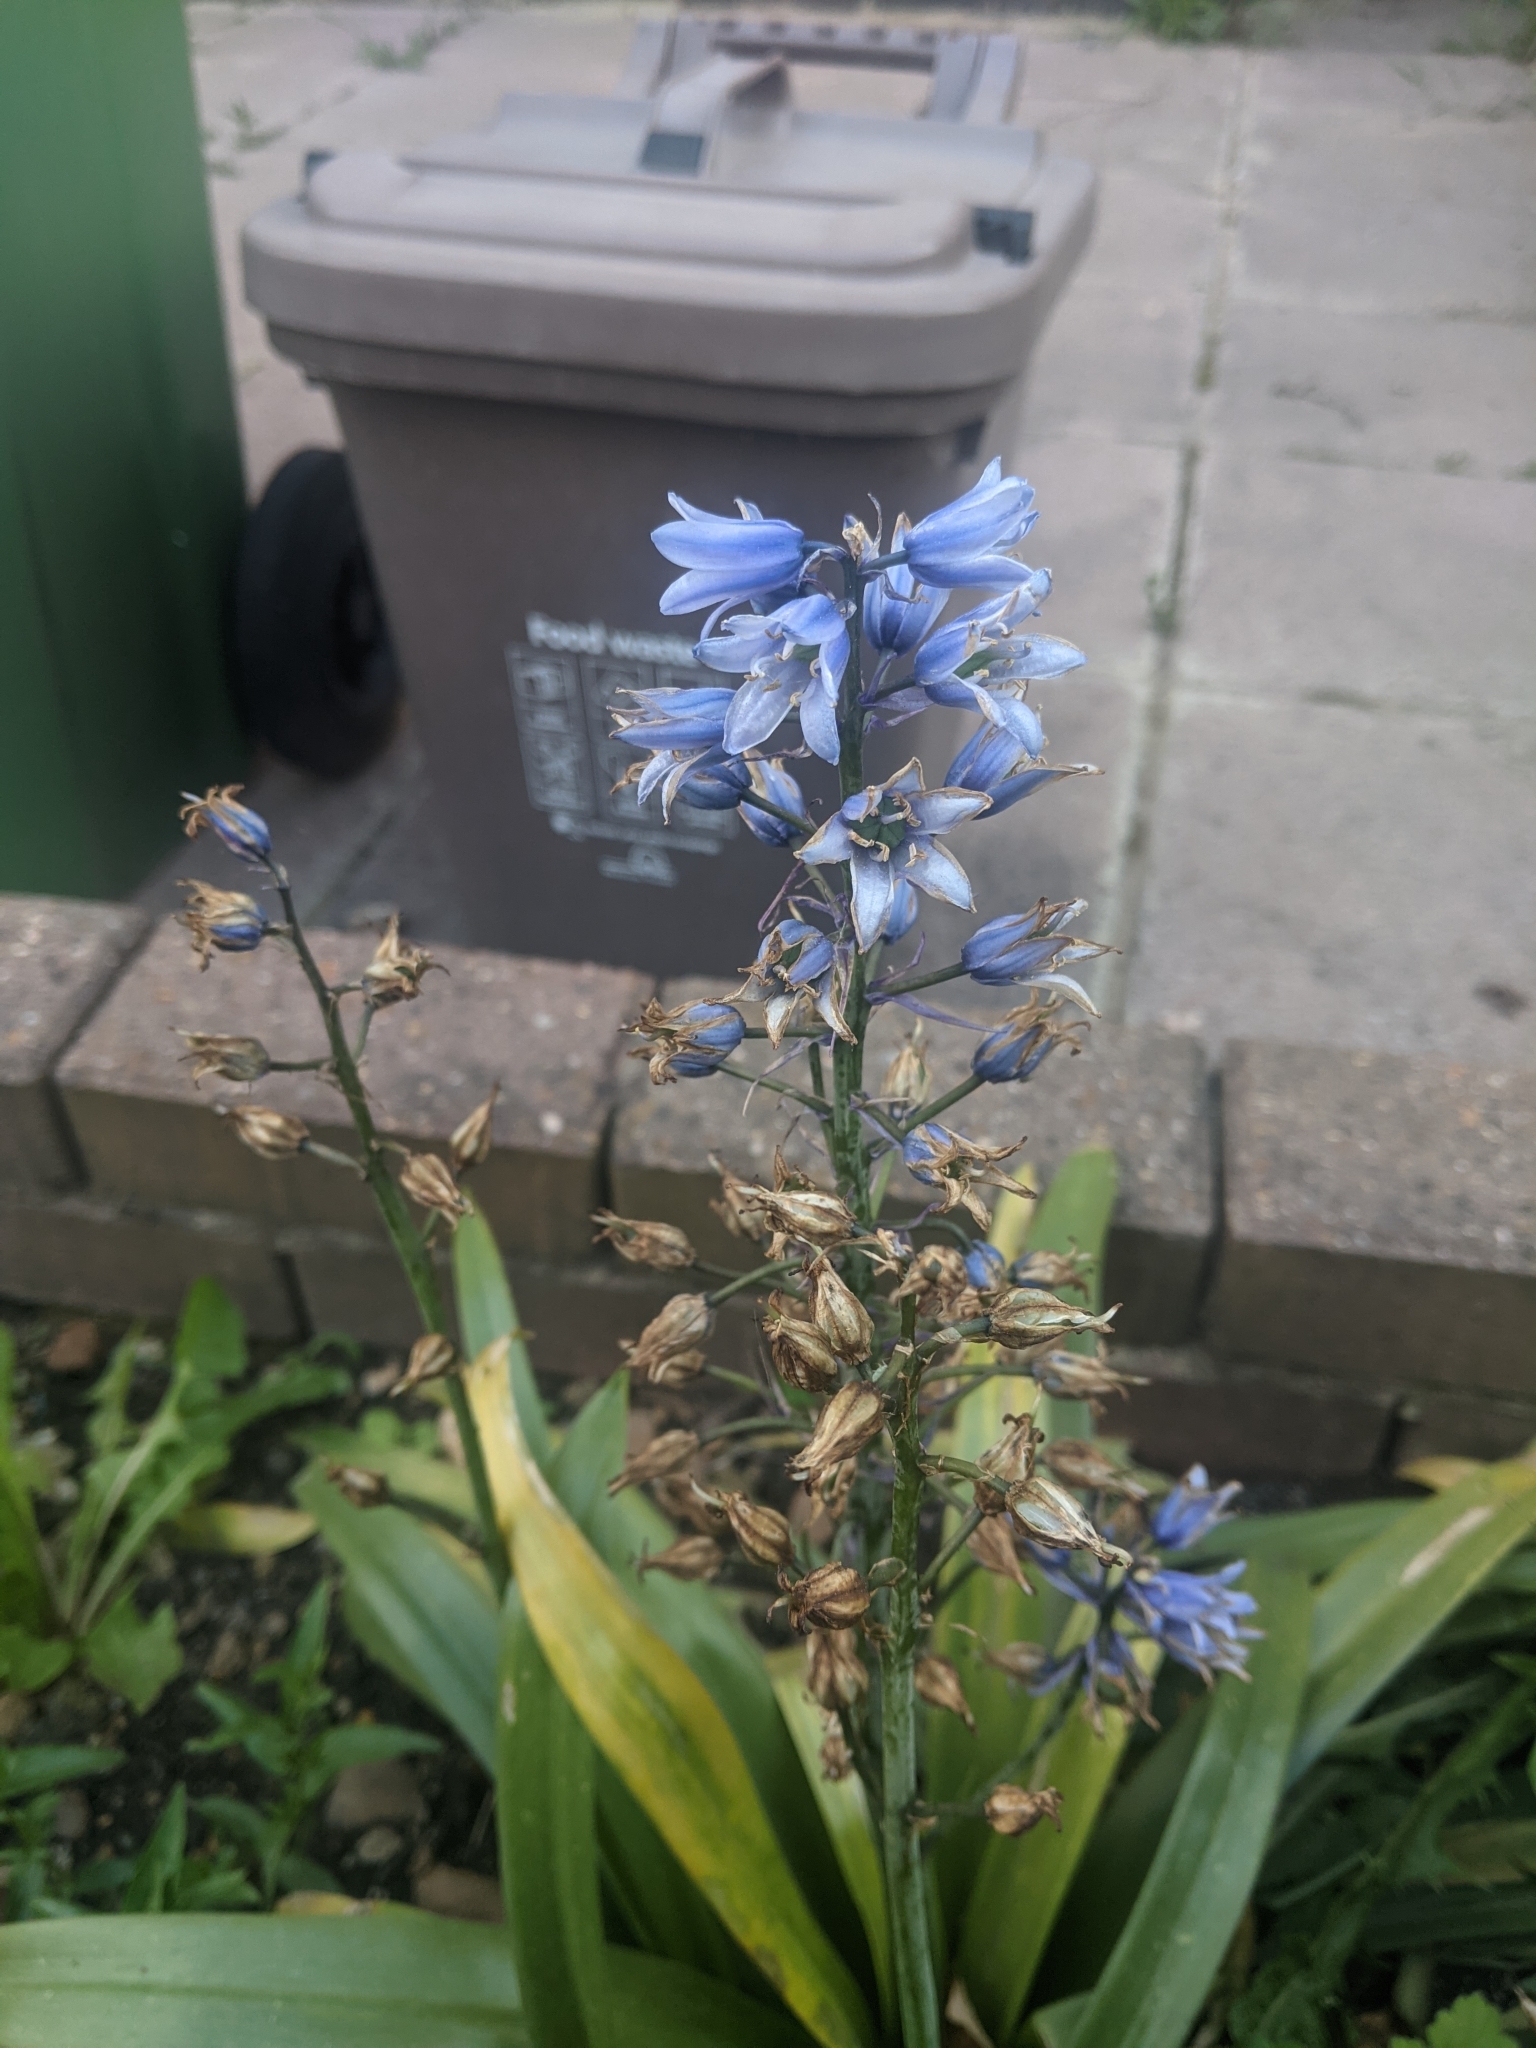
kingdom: Fungi
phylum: Basidiomycota
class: Pucciniomycetes
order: Pucciniales
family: Pucciniaceae
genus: Uromyces
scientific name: Uromyces hyacinthi
